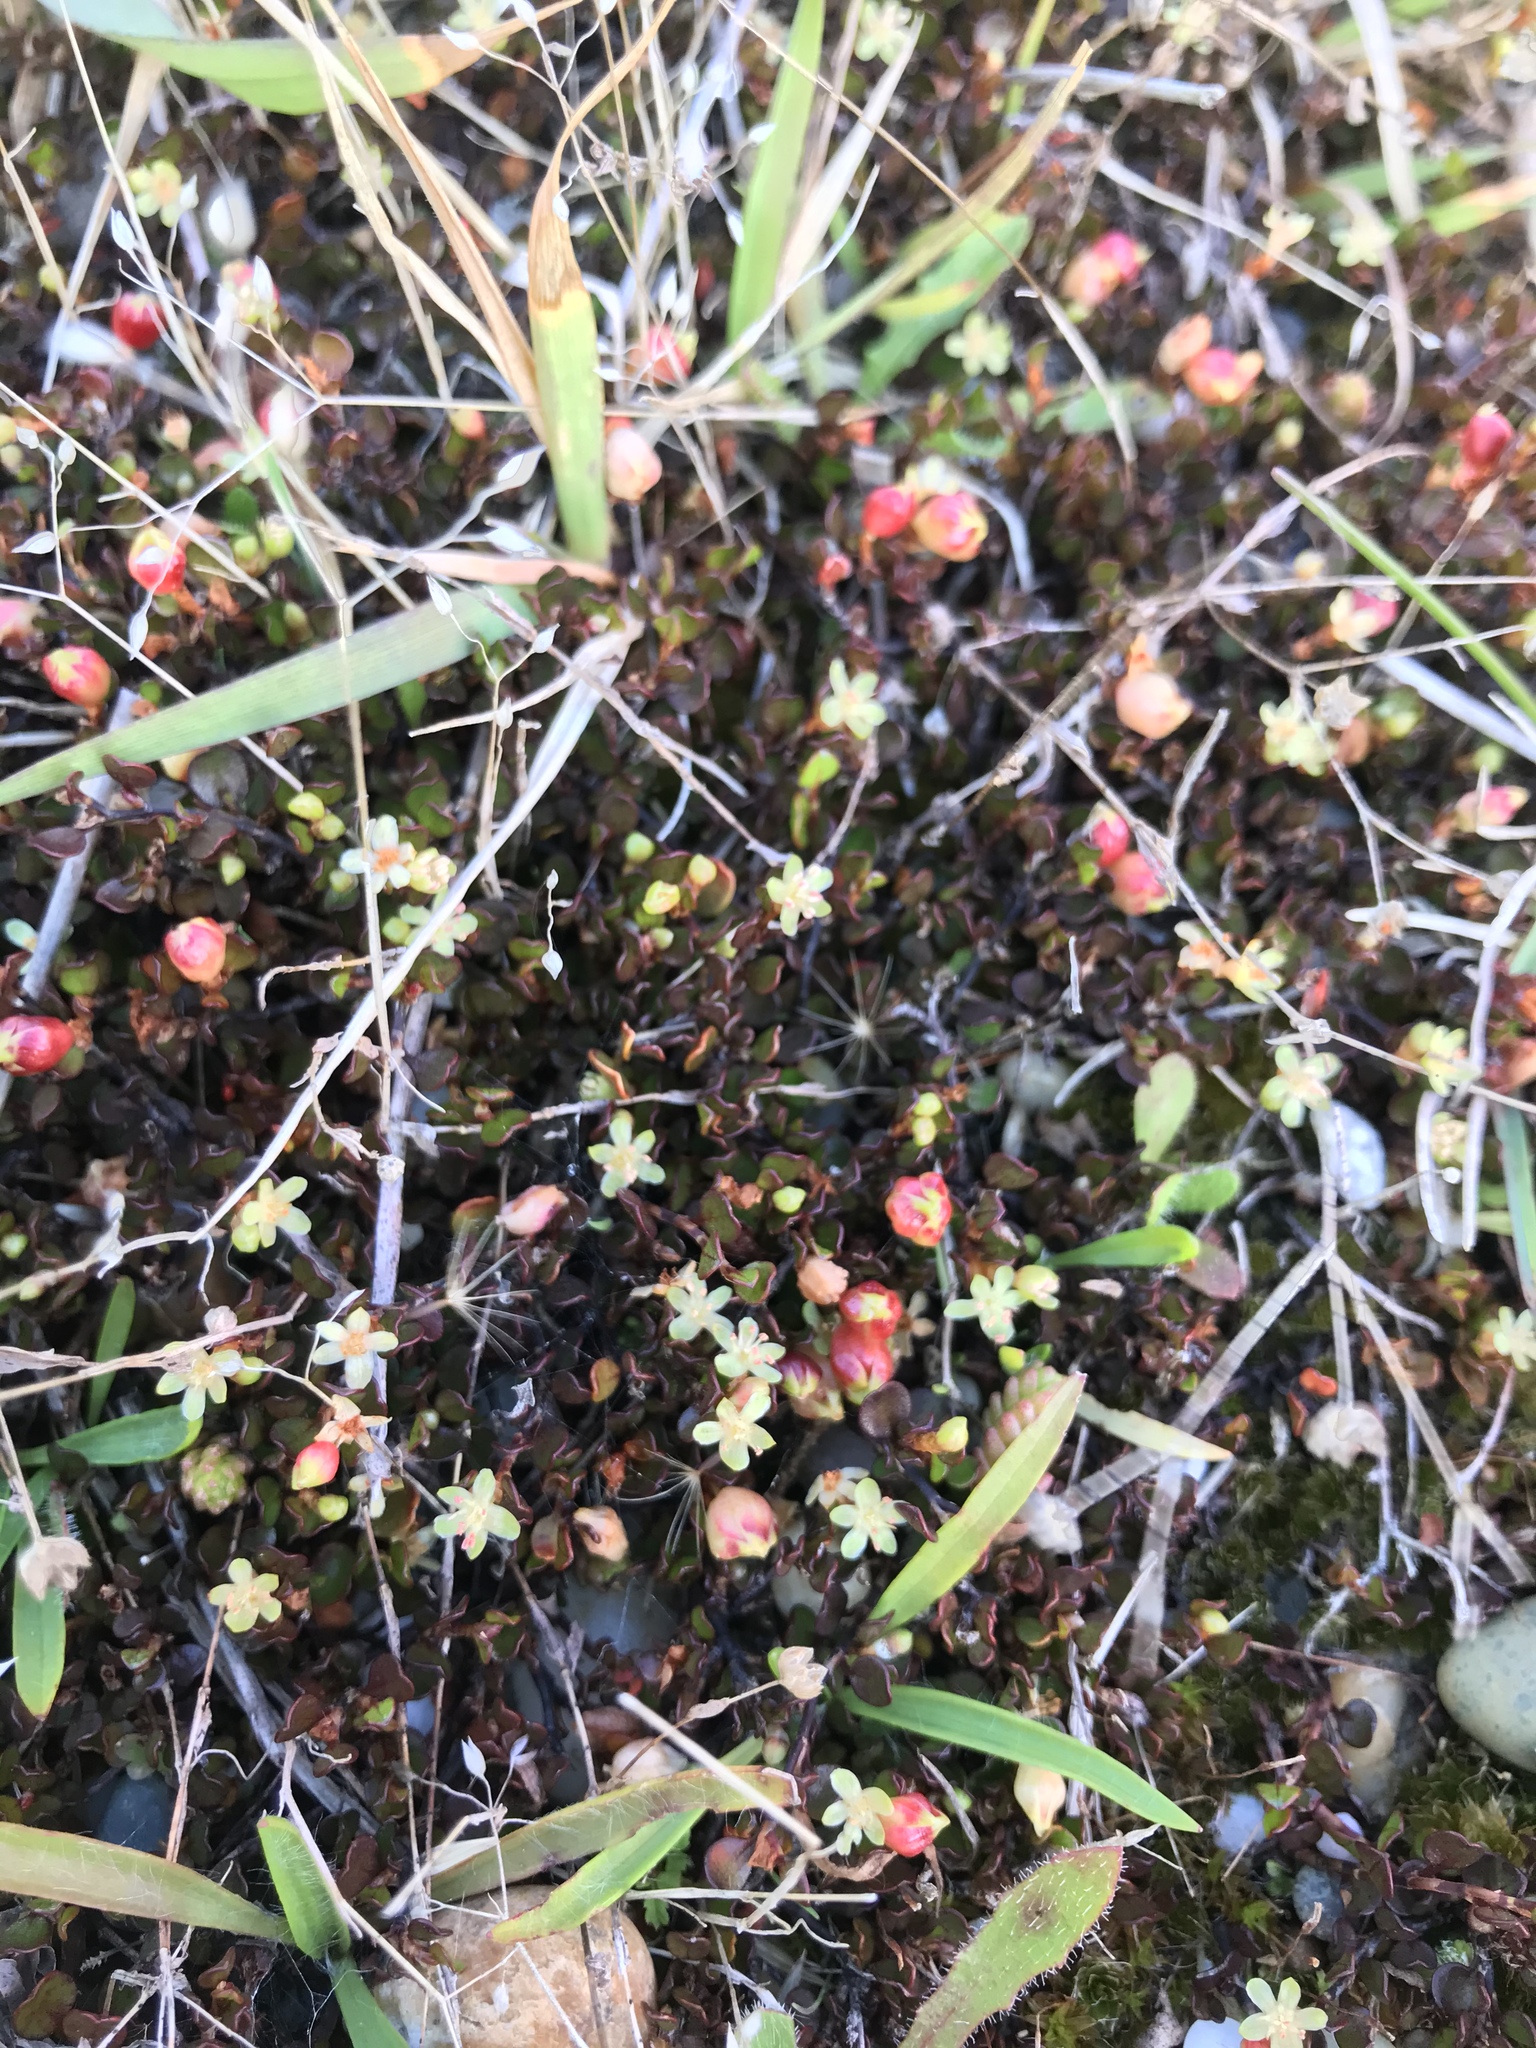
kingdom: Plantae
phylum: Tracheophyta
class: Magnoliopsida
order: Caryophyllales
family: Polygonaceae
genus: Muehlenbeckia
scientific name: Muehlenbeckia axillaris
